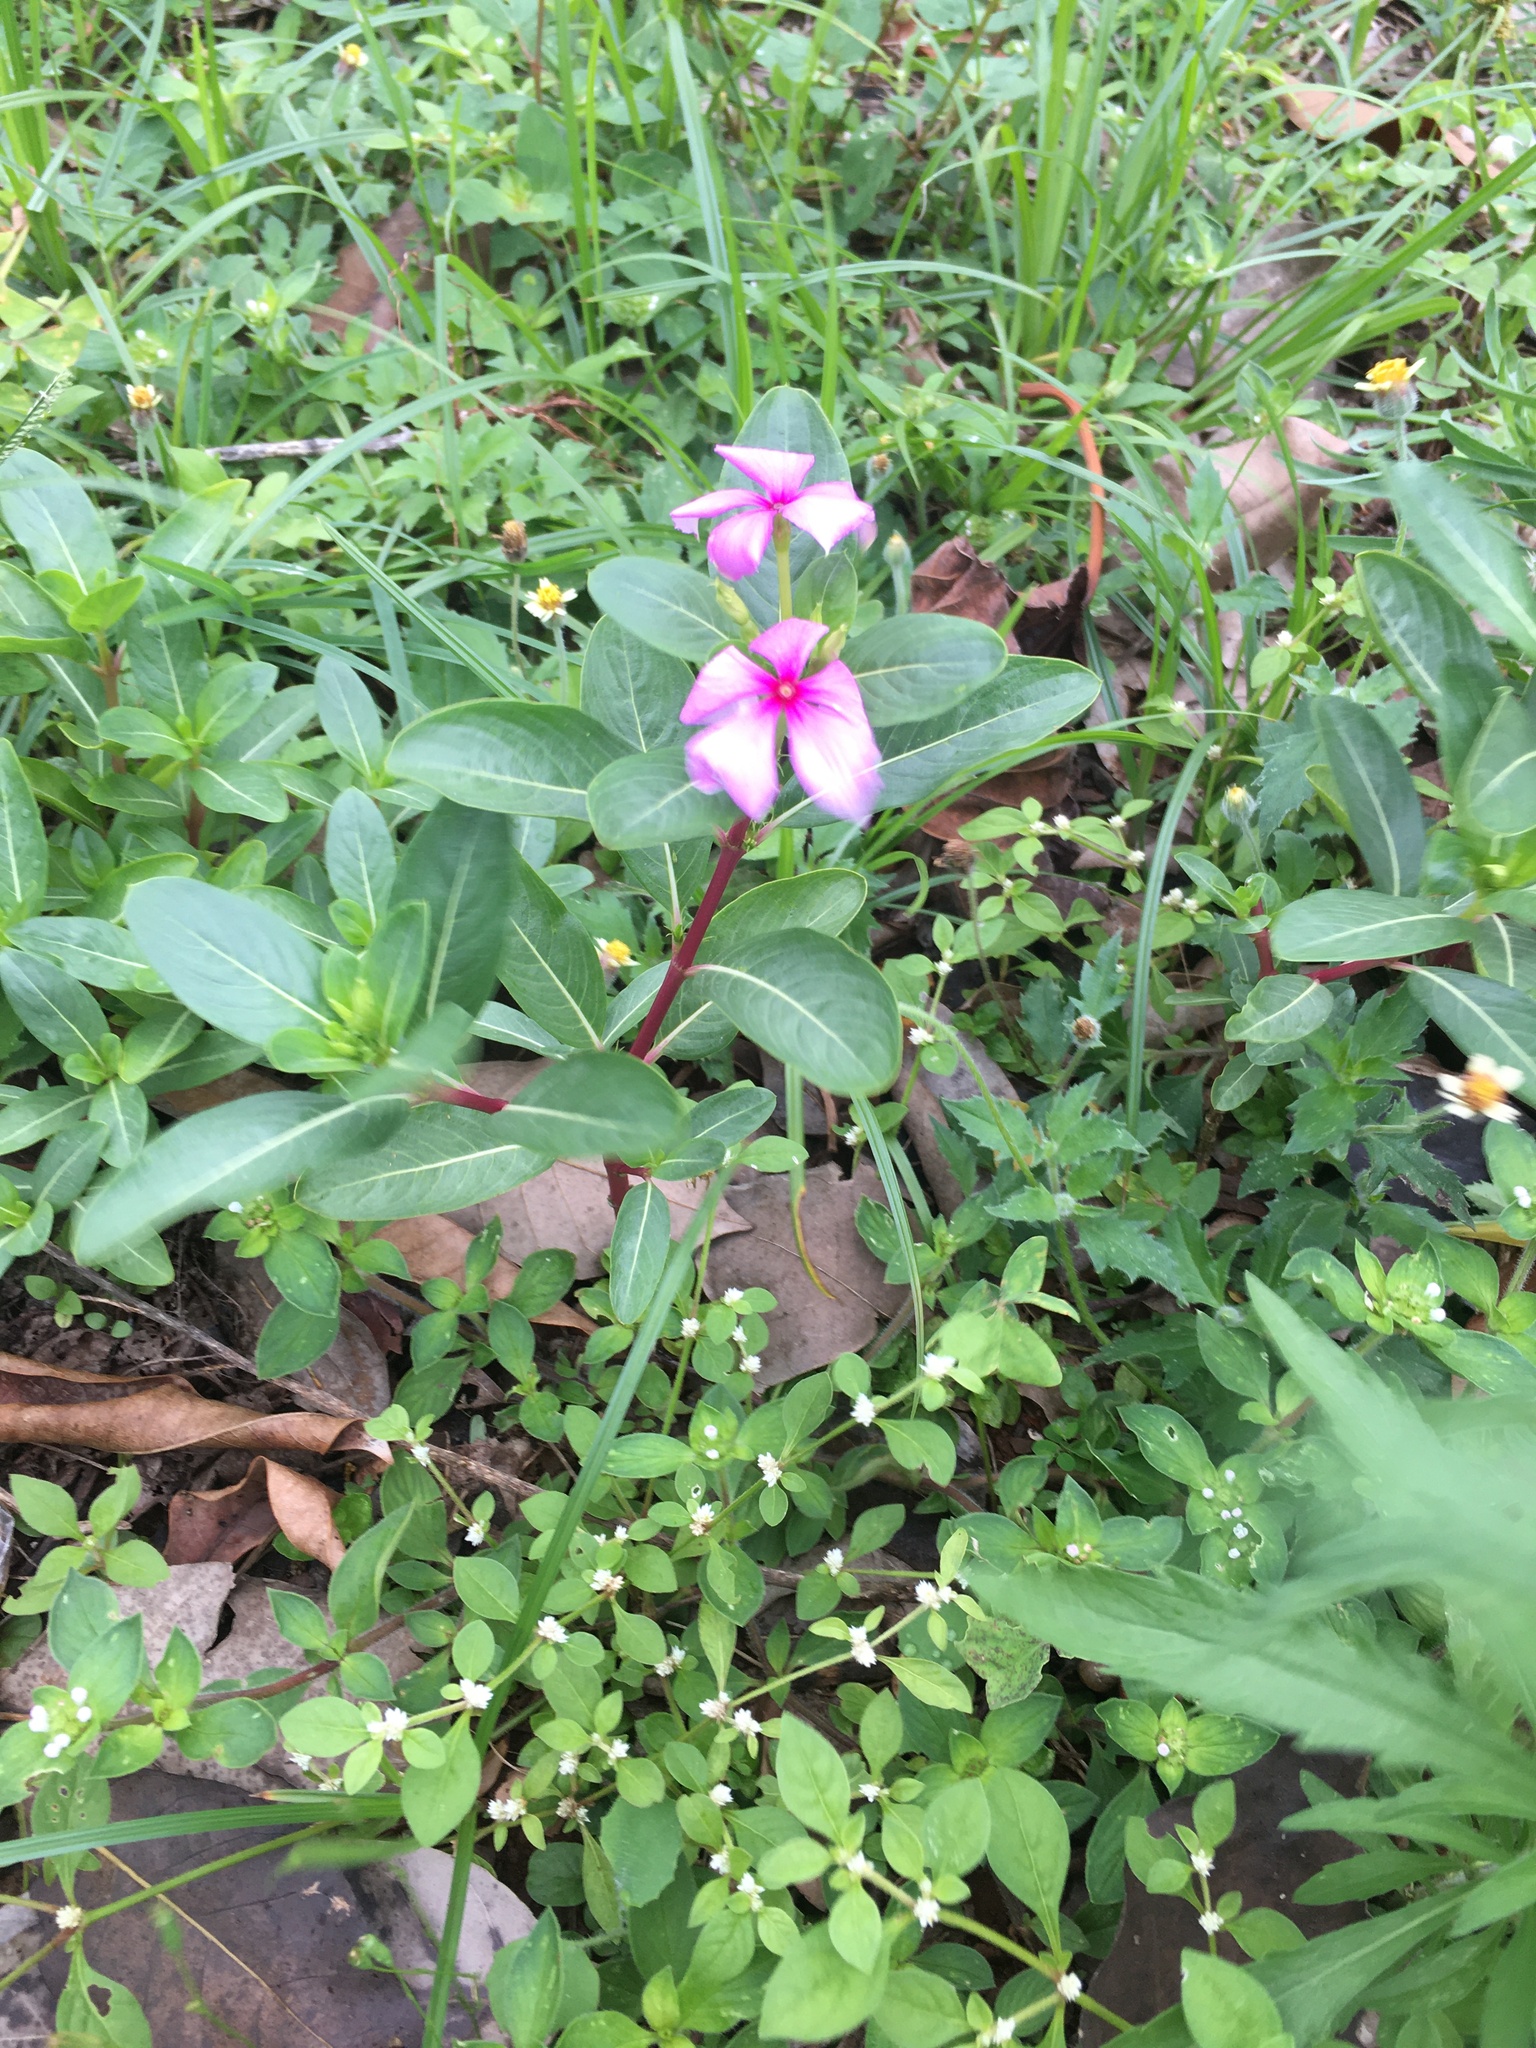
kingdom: Plantae
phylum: Tracheophyta
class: Magnoliopsida
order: Gentianales
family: Apocynaceae
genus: Catharanthus
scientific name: Catharanthus roseus
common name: Madagascar periwinkle
